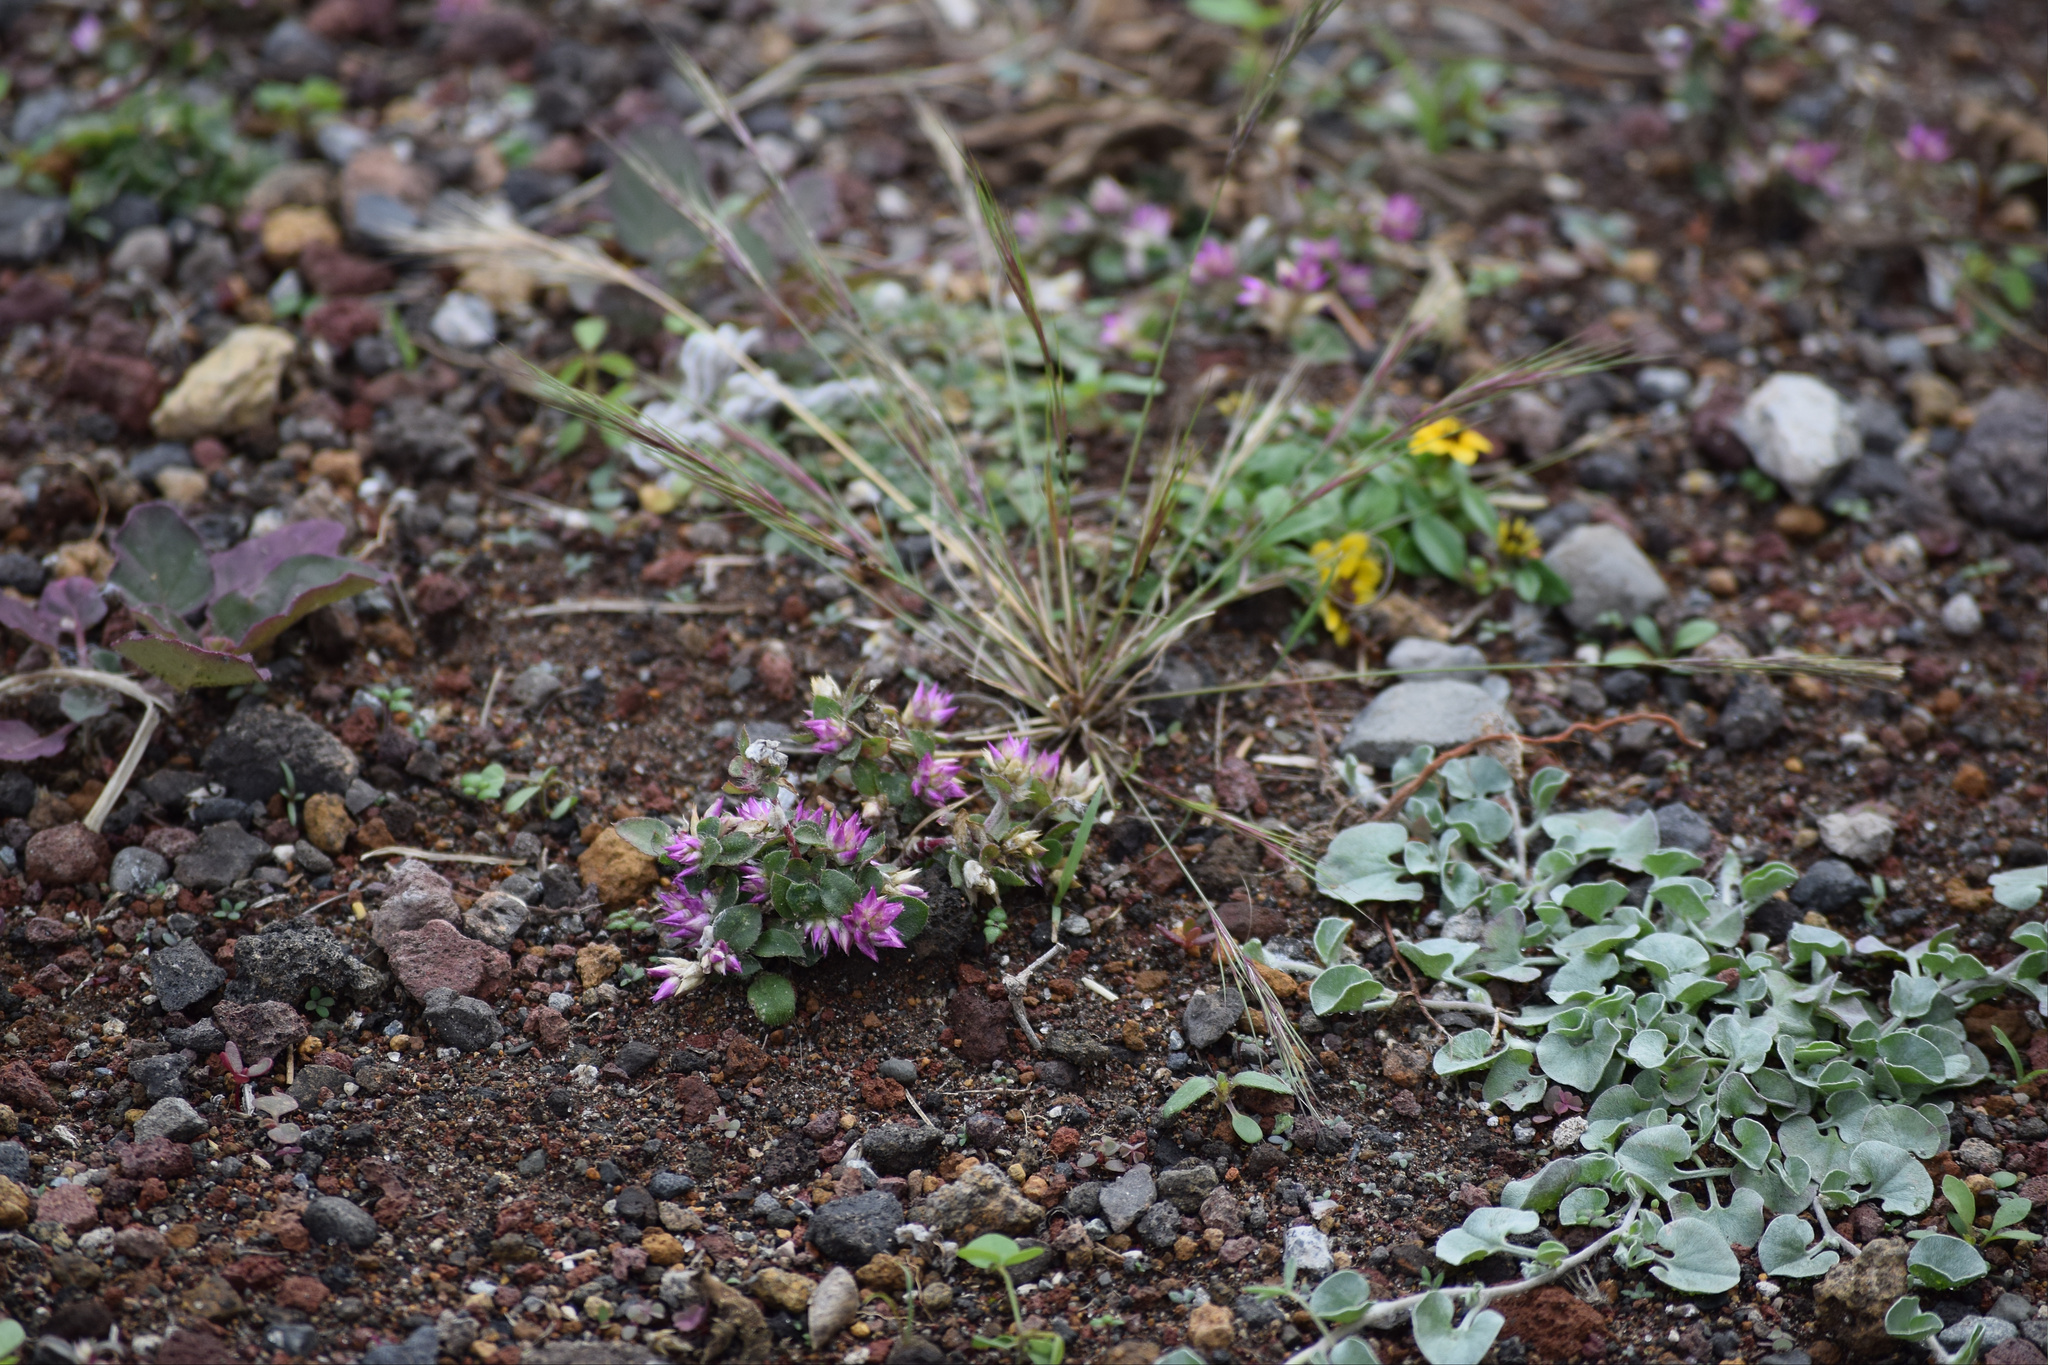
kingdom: Plantae
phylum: Tracheophyta
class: Magnoliopsida
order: Caryophyllales
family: Amaranthaceae
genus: Gomphrena
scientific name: Gomphrena serrata
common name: Arrasa con todo
